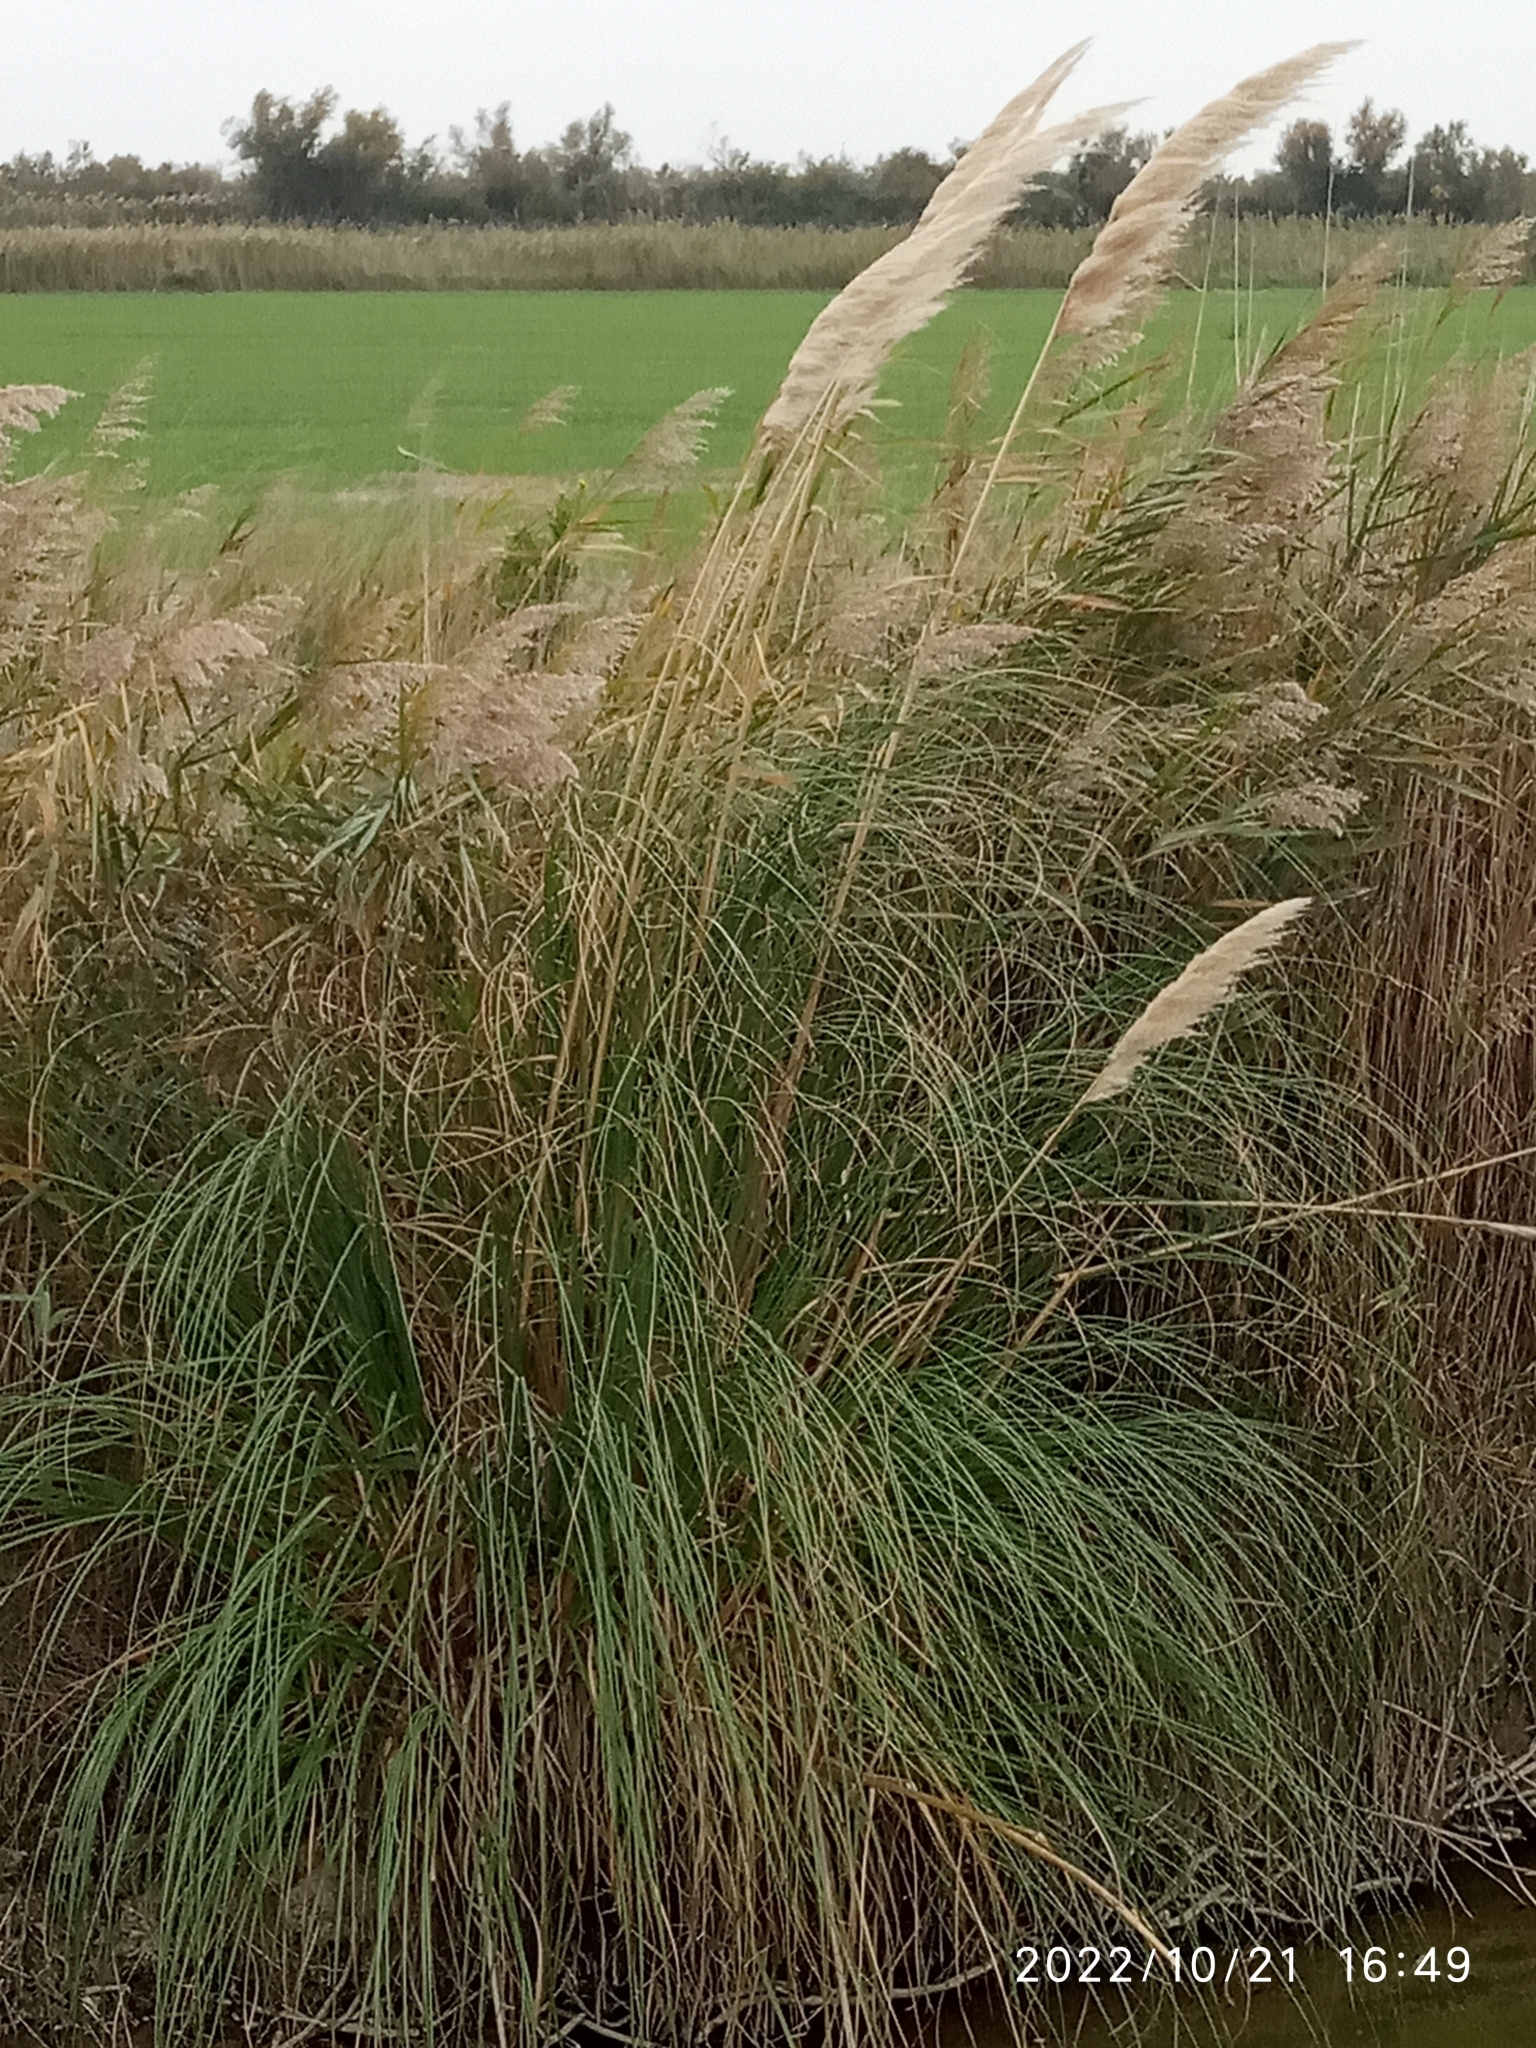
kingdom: Plantae
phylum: Tracheophyta
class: Liliopsida
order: Poales
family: Poaceae
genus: Cortaderia
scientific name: Cortaderia selloana
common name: Uruguayan pampas grass
